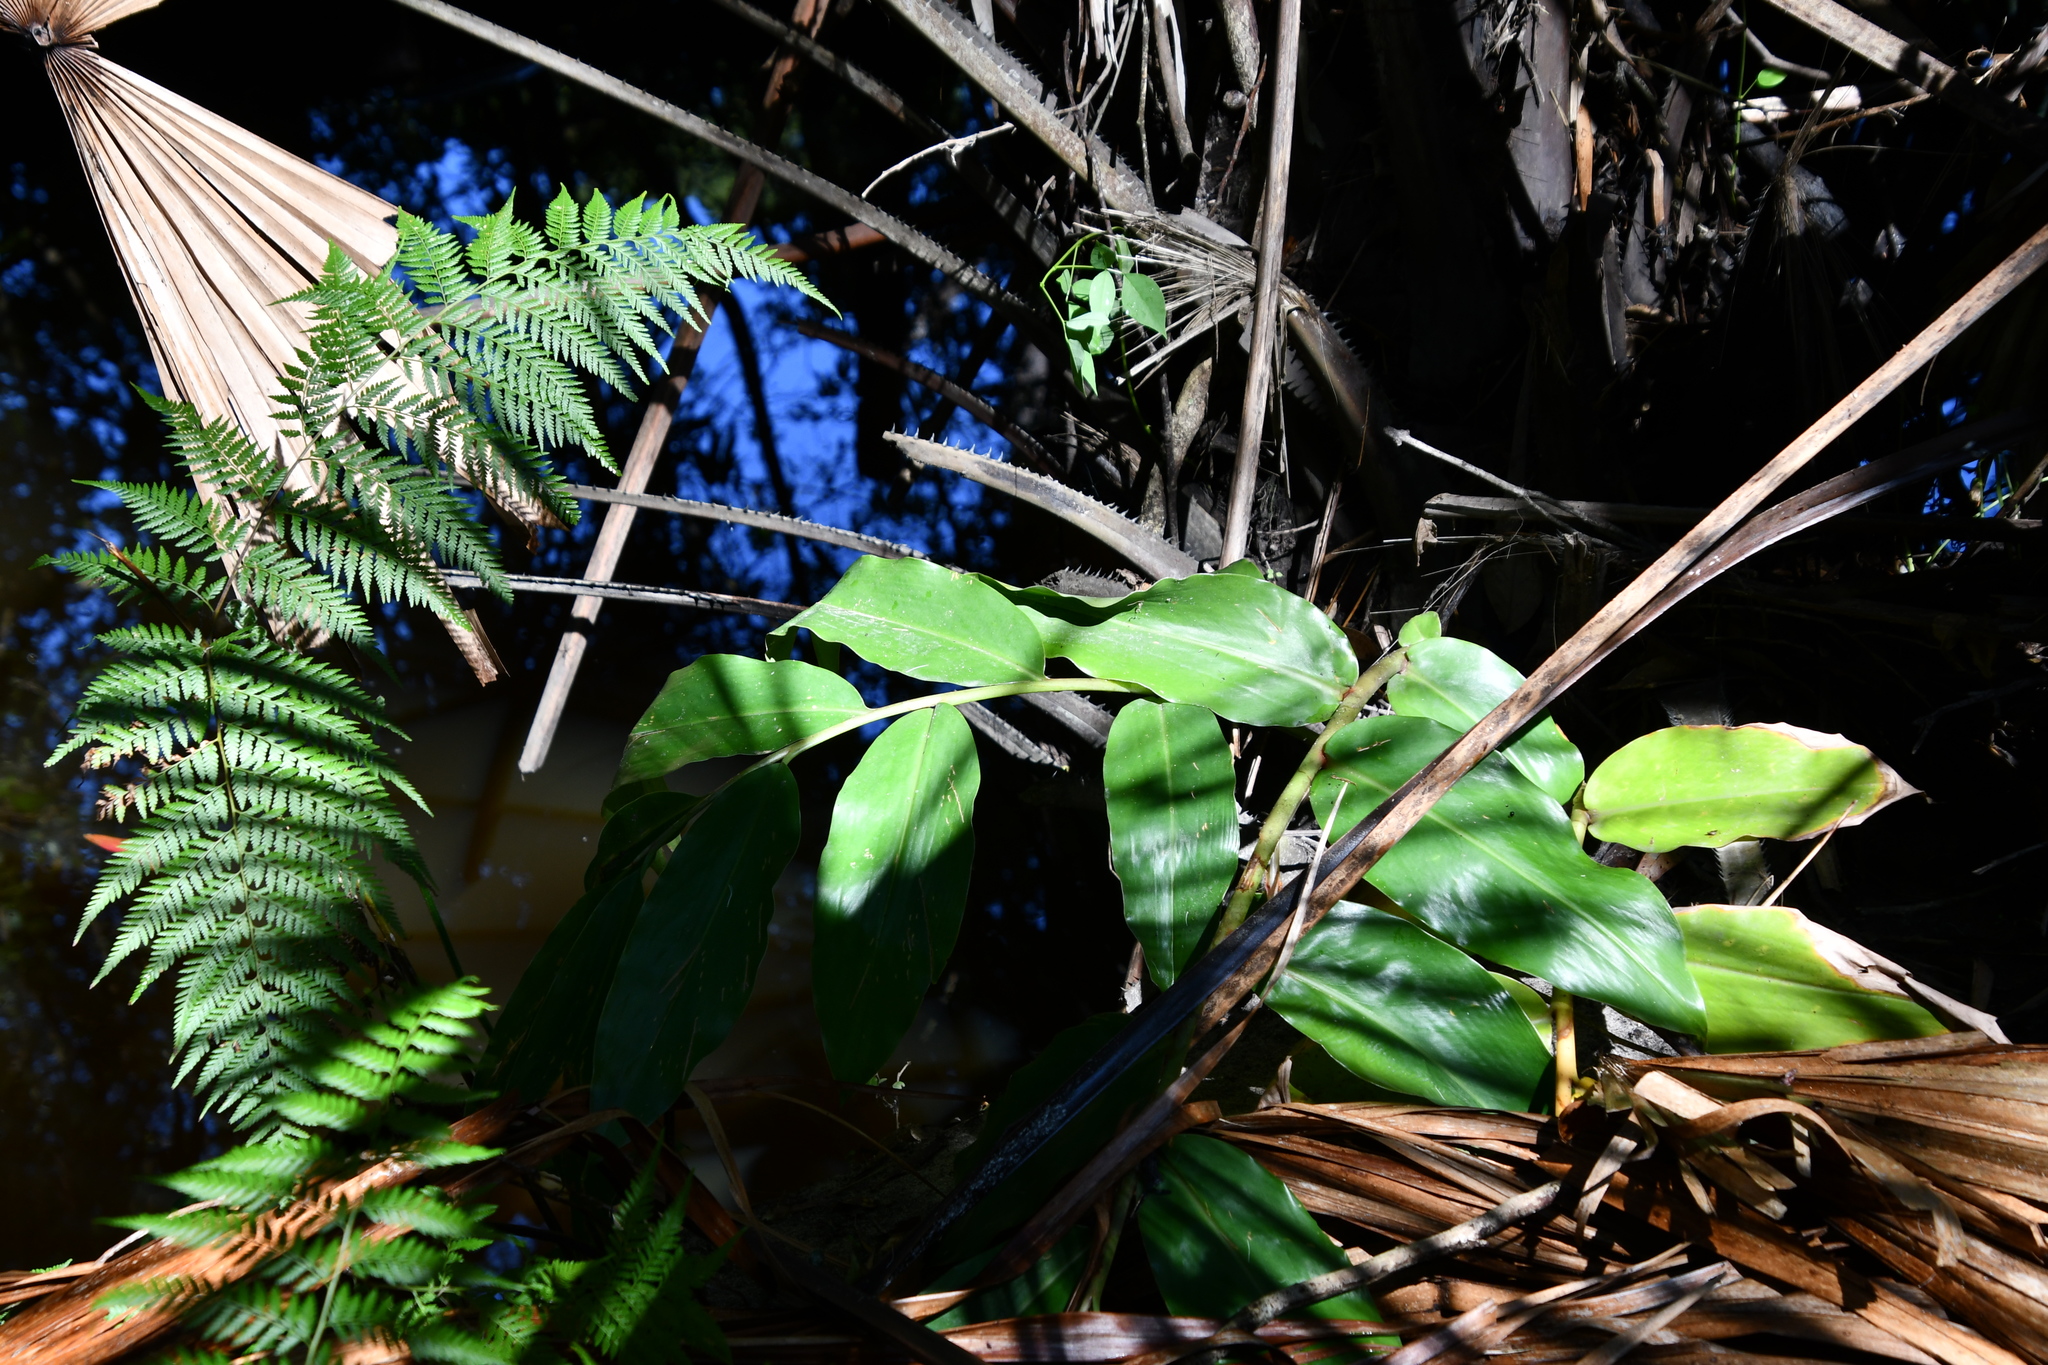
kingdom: Plantae
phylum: Tracheophyta
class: Liliopsida
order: Zingiberales
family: Zingiberaceae
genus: Hedychium
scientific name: Hedychium gardnerianum
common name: Himalayan ginger
